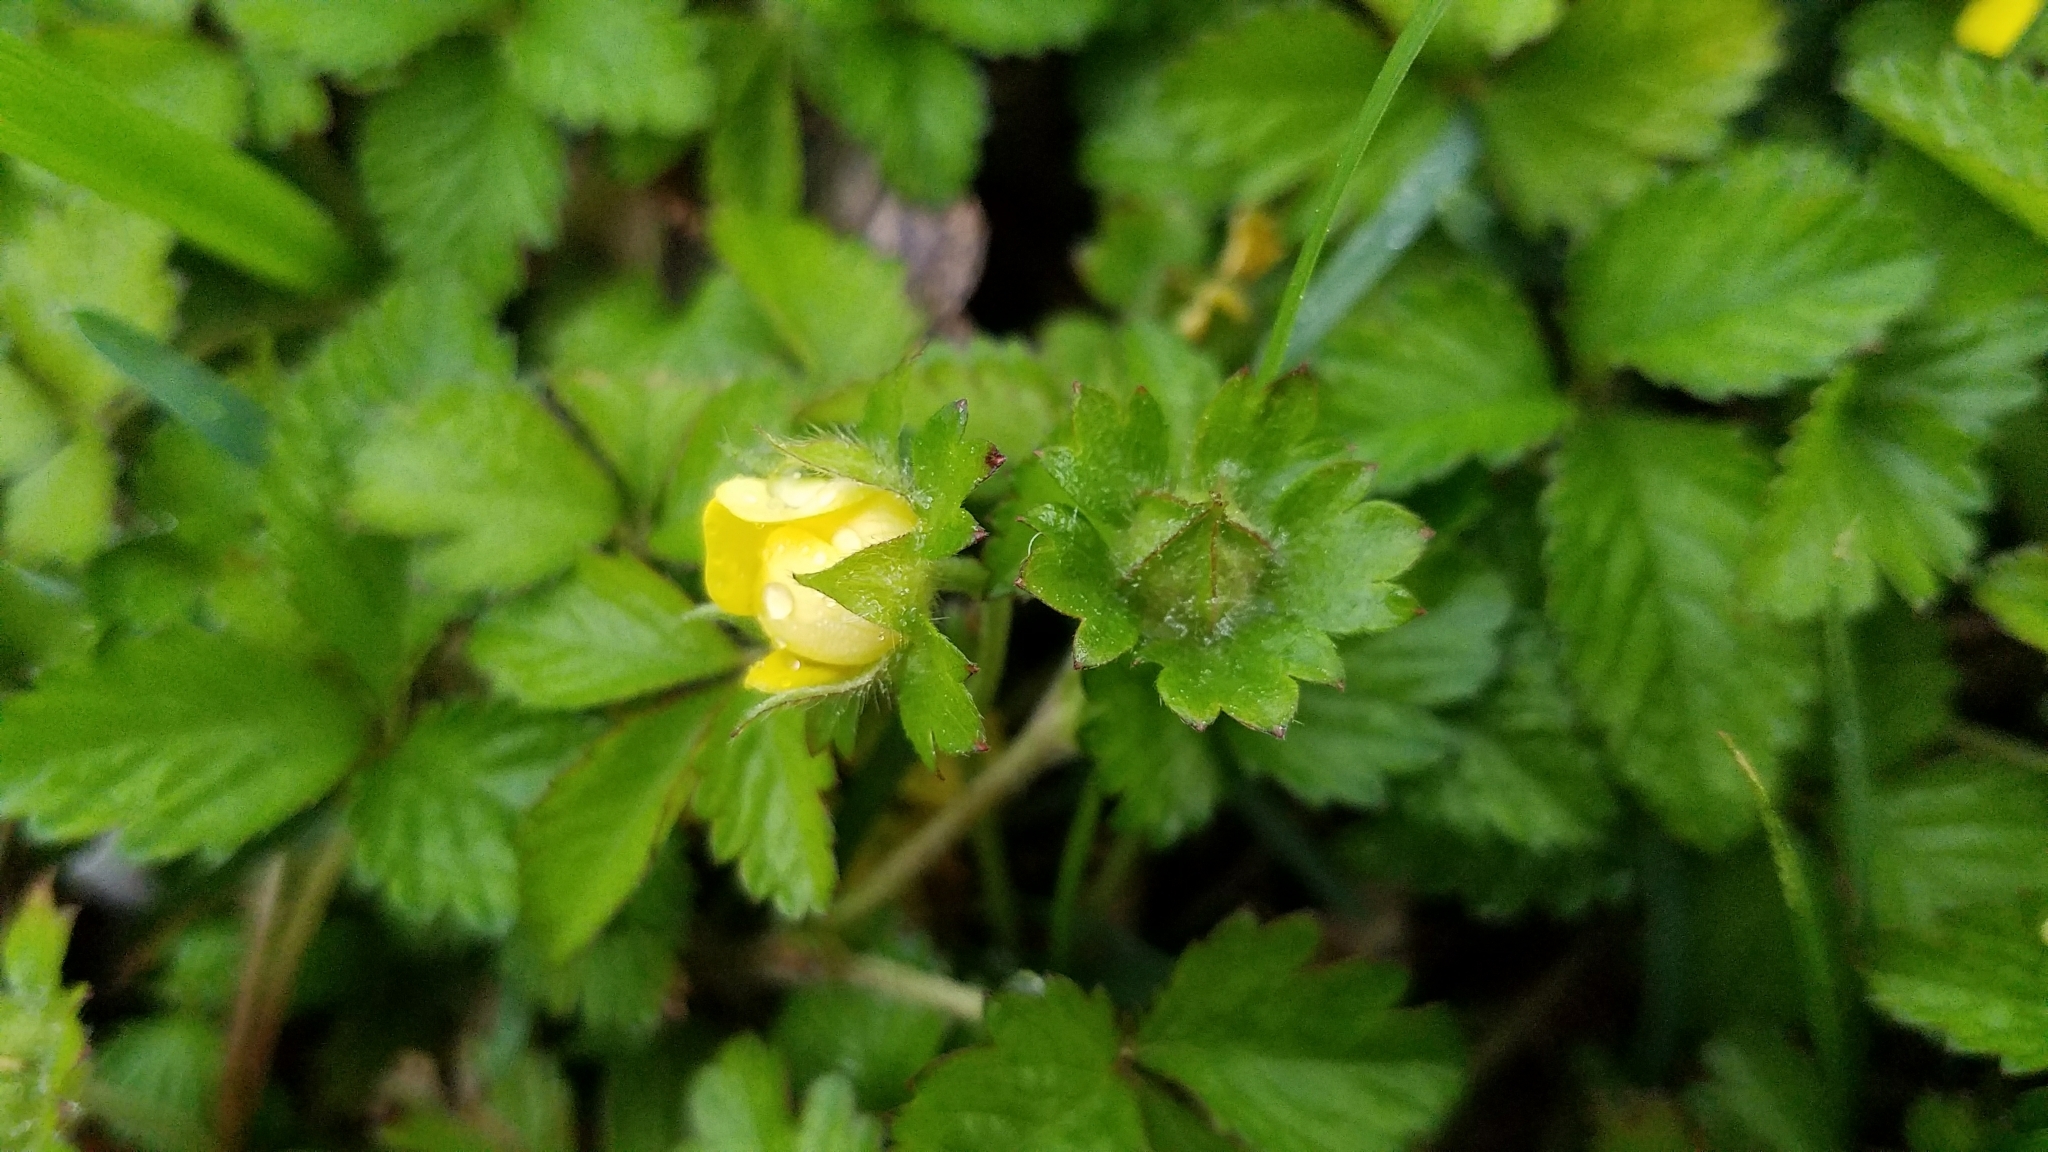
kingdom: Plantae
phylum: Tracheophyta
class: Magnoliopsida
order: Rosales
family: Rosaceae
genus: Potentilla
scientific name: Potentilla indica
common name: Yellow-flowered strawberry
